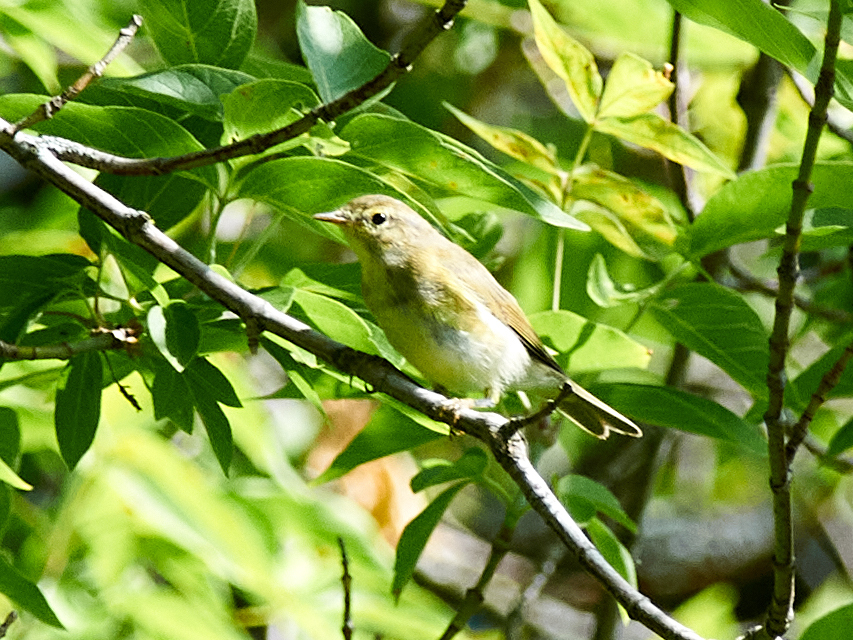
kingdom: Animalia
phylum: Chordata
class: Aves
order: Passeriformes
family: Phylloscopidae
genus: Phylloscopus
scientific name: Phylloscopus trochilus
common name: Willow warbler
